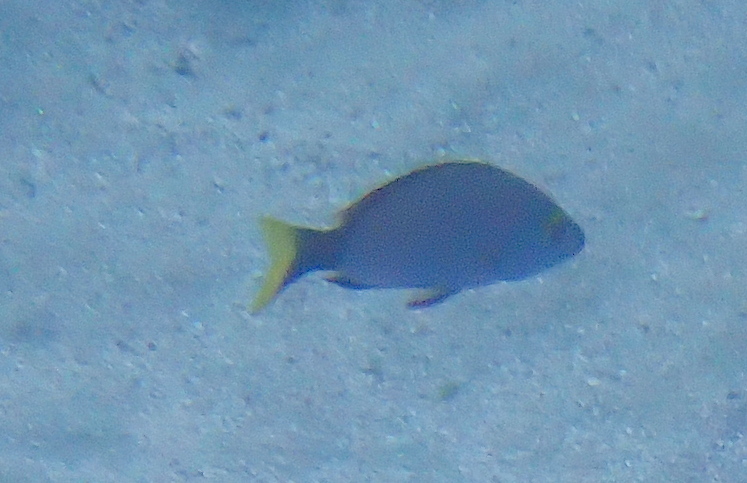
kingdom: Animalia
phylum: Chordata
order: Perciformes
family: Lutjanidae
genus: Lutjanus
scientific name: Lutjanus gibbus
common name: Humpback snapper
